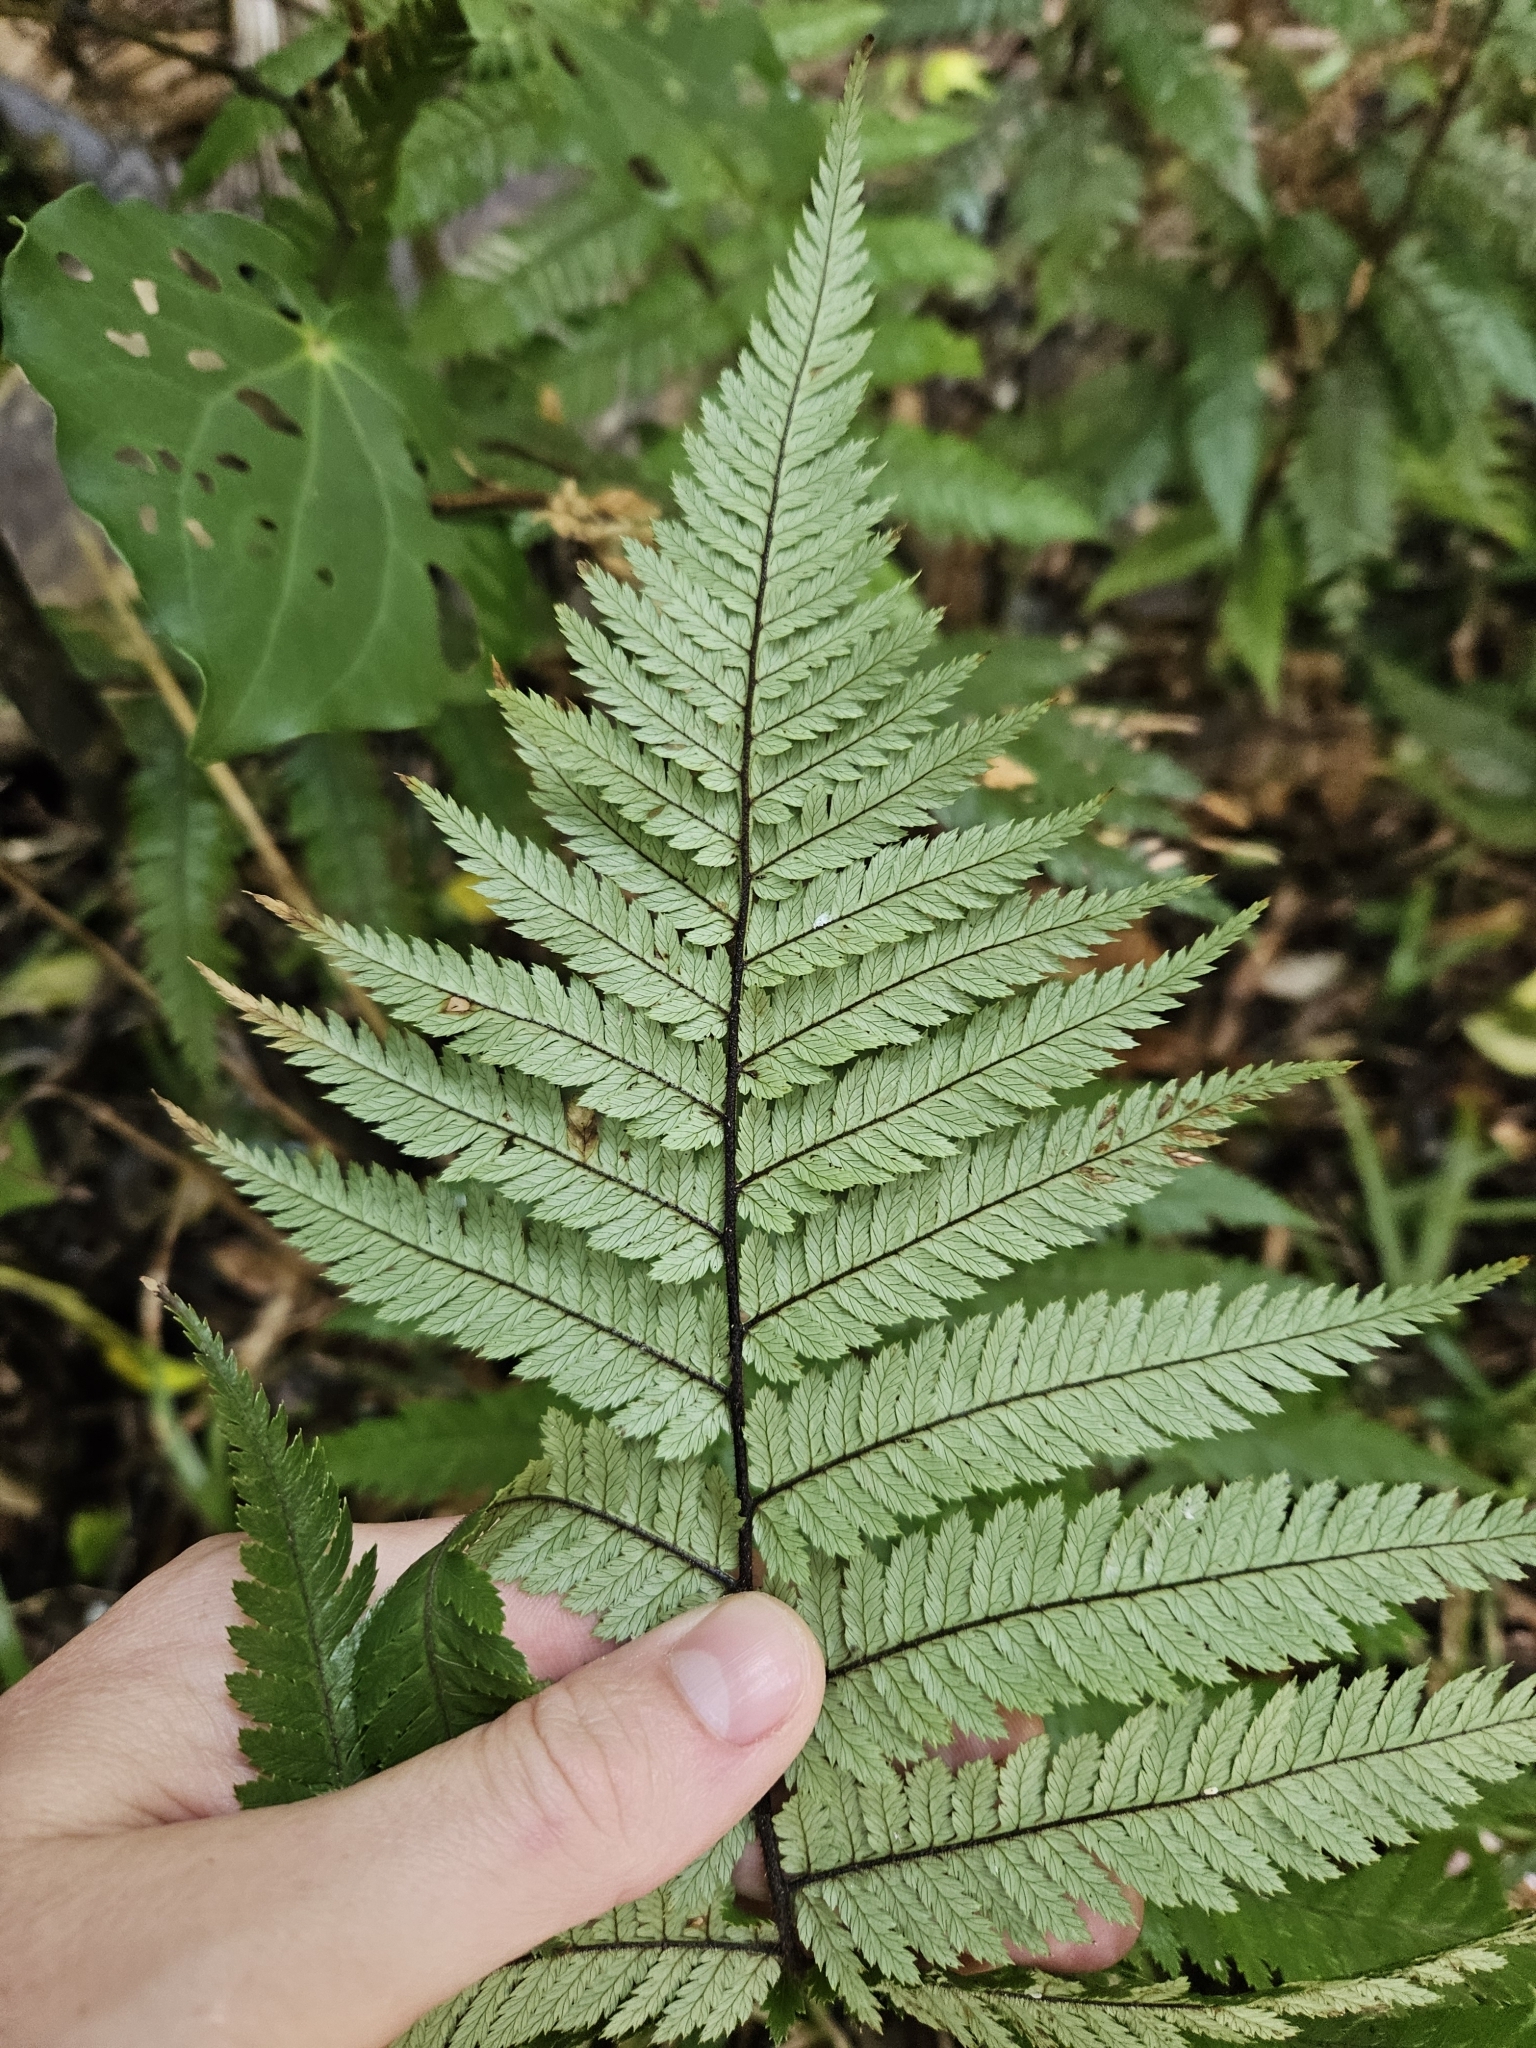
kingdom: Plantae
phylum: Tracheophyta
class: Polypodiopsida
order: Cyatheales
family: Dicksoniaceae
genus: Dicksonia
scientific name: Dicksonia squarrosa
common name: Hard treefern
